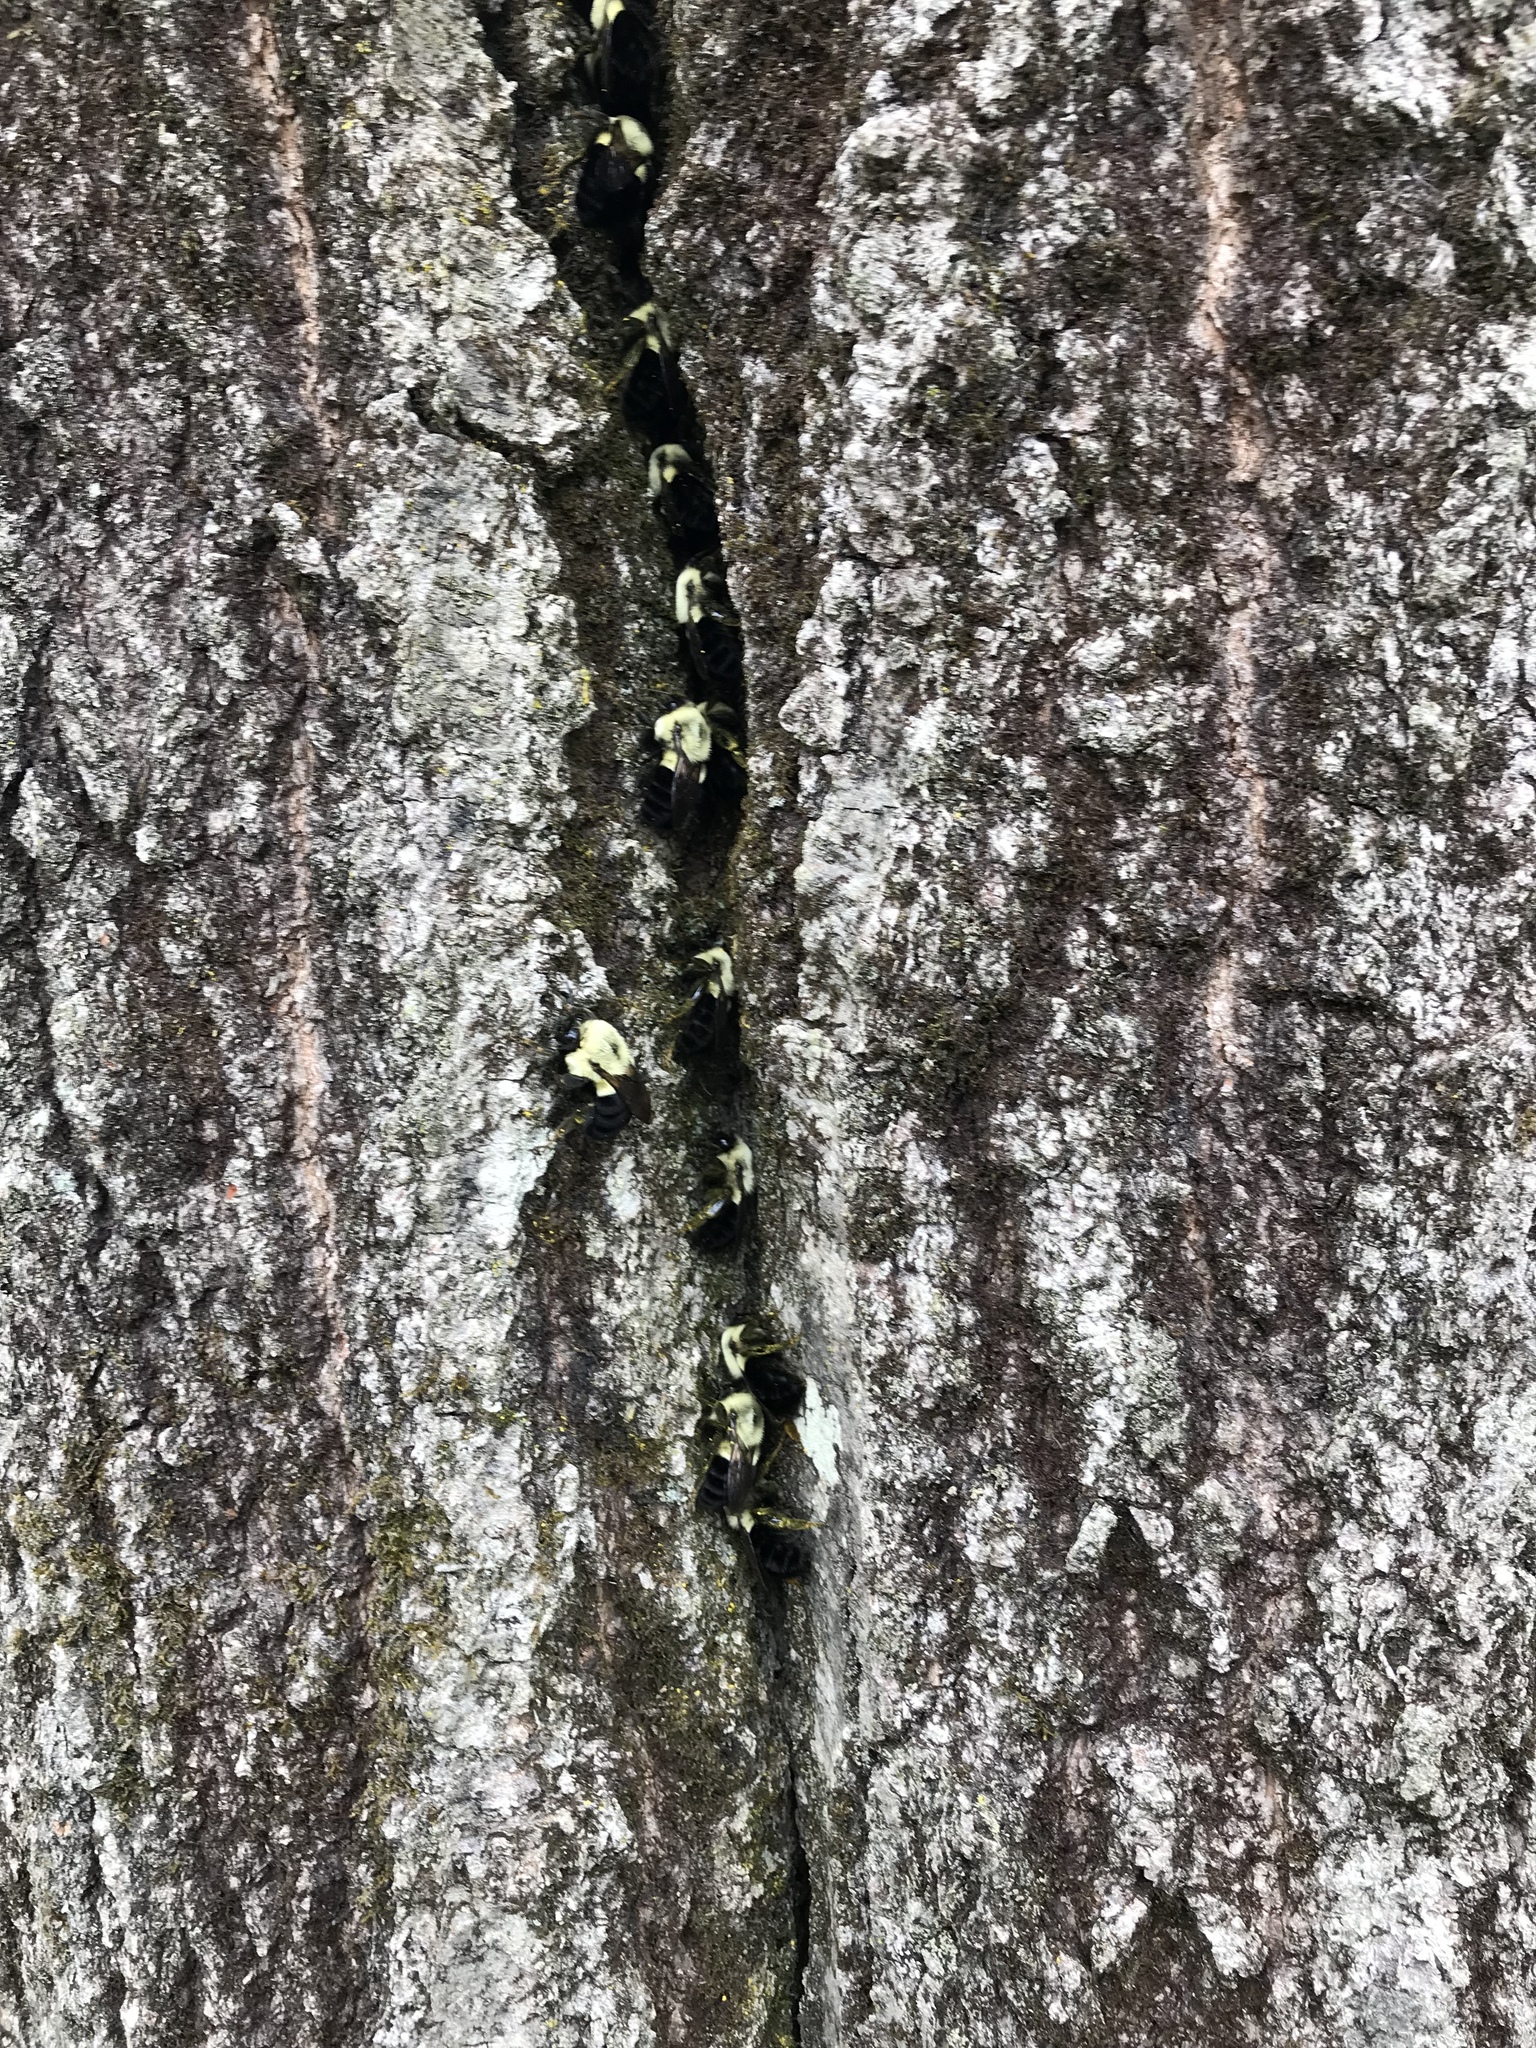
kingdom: Animalia
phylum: Arthropoda
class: Insecta
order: Hymenoptera
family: Apidae
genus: Bombus
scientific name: Bombus impatiens
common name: Common eastern bumble bee
